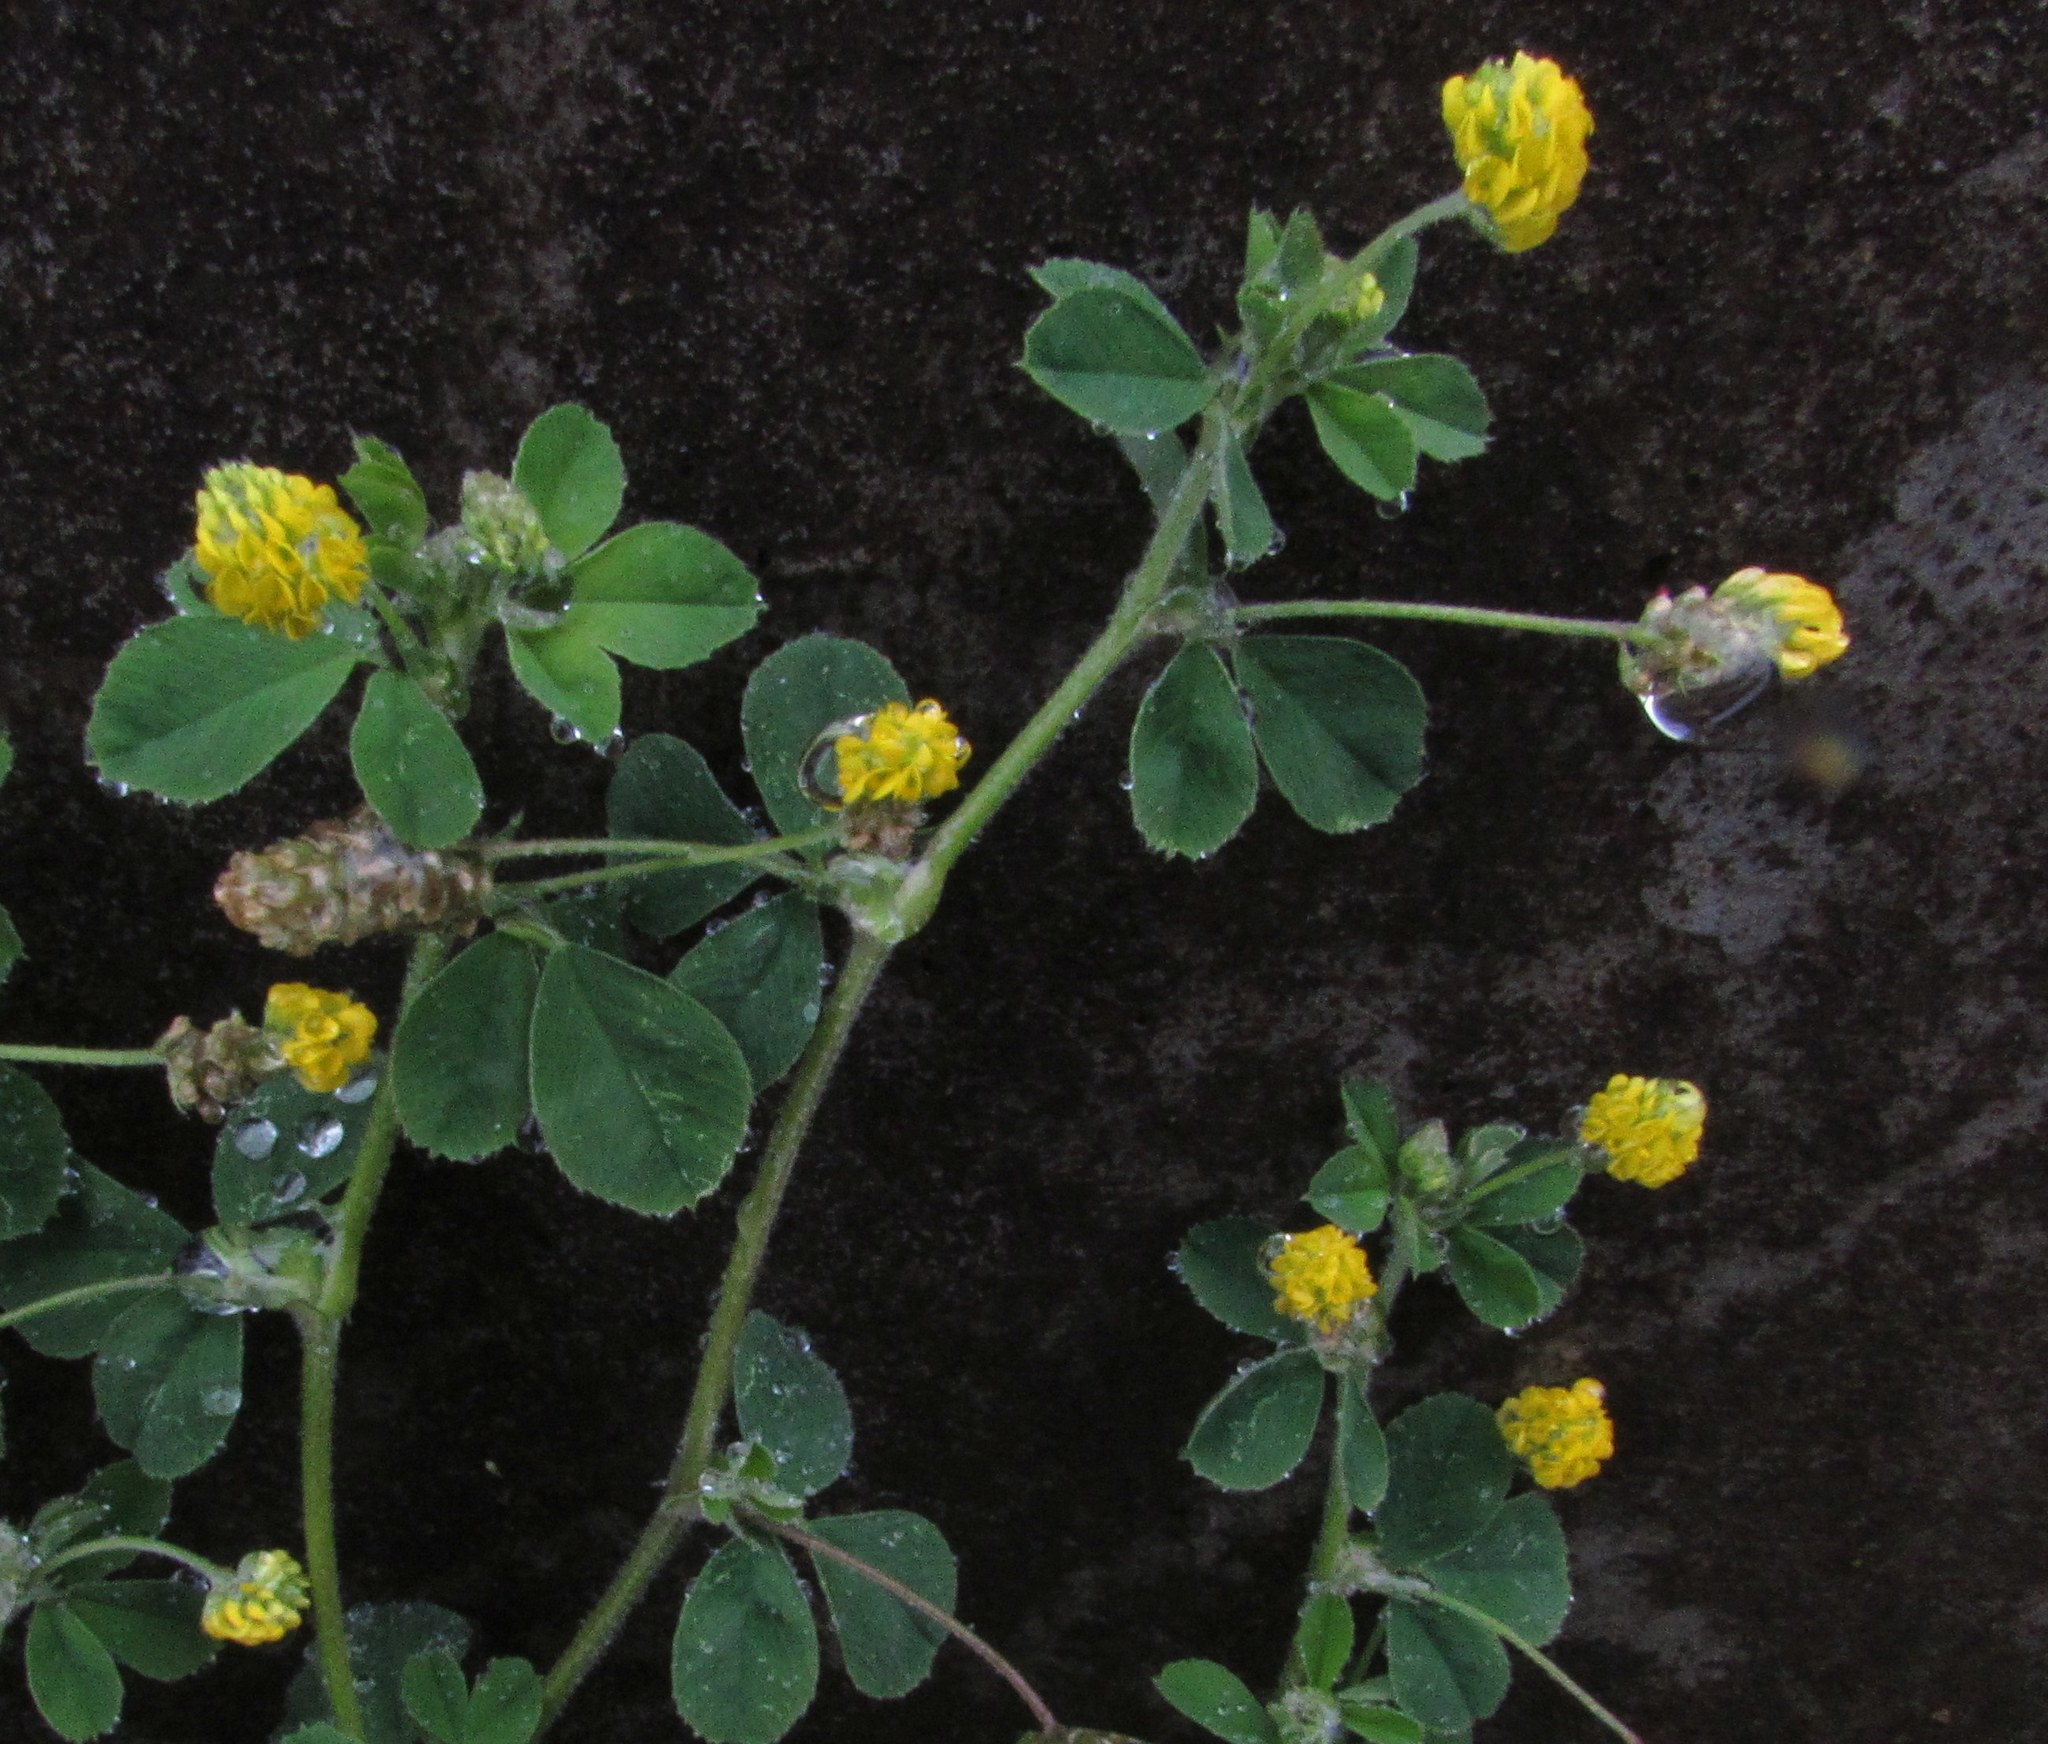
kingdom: Plantae
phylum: Tracheophyta
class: Magnoliopsida
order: Fabales
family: Fabaceae
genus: Medicago
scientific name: Medicago lupulina
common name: Black medick
